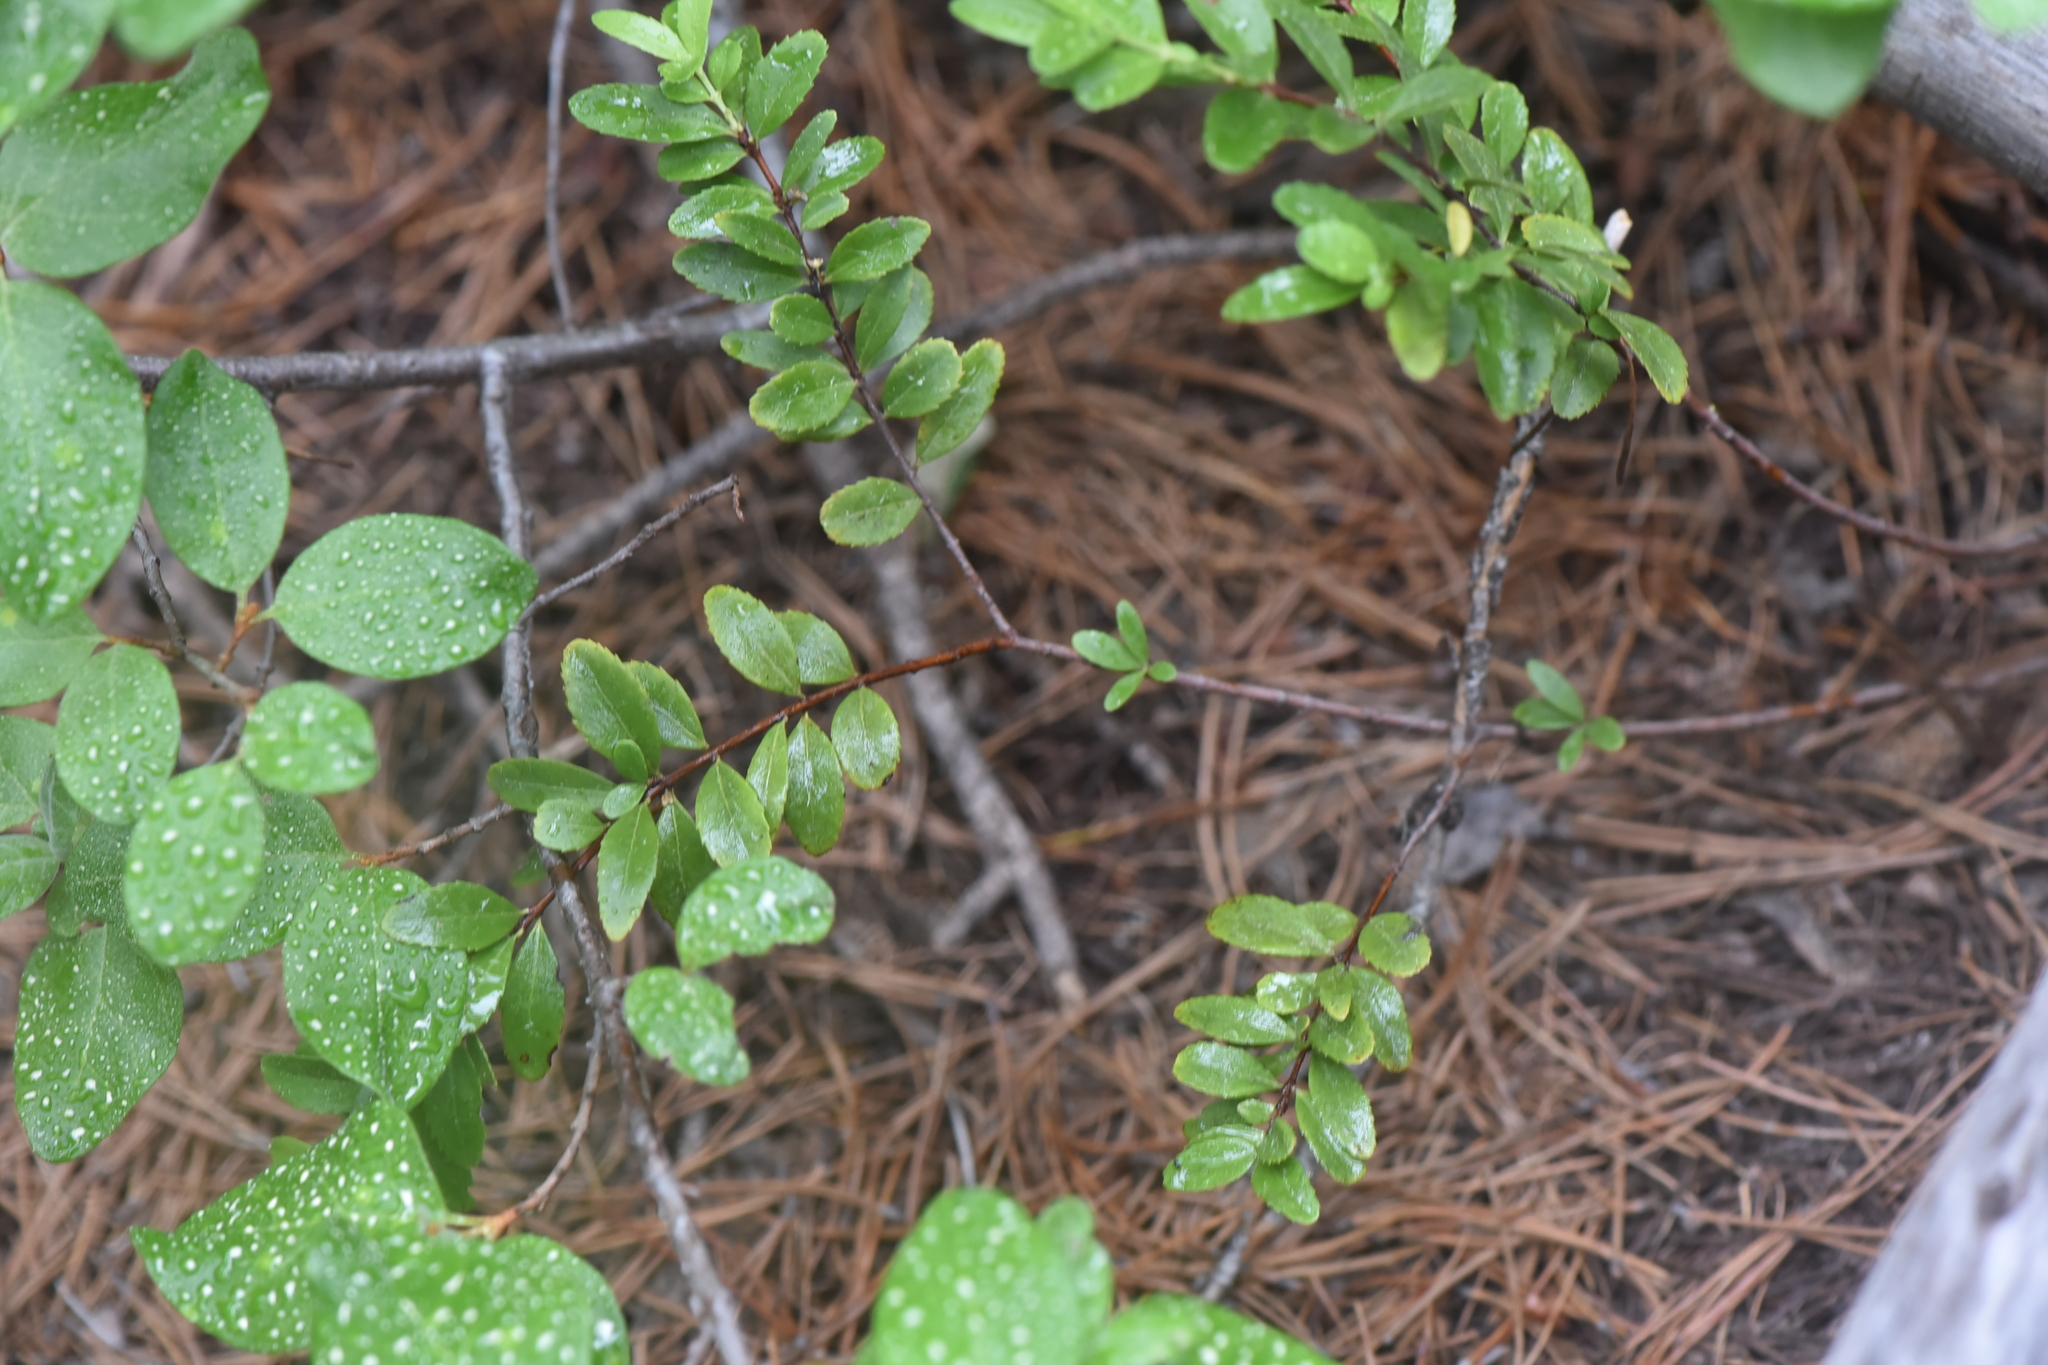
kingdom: Plantae
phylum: Tracheophyta
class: Magnoliopsida
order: Celastrales
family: Celastraceae
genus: Paxistima
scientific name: Paxistima myrsinites
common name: Mountain-lover
